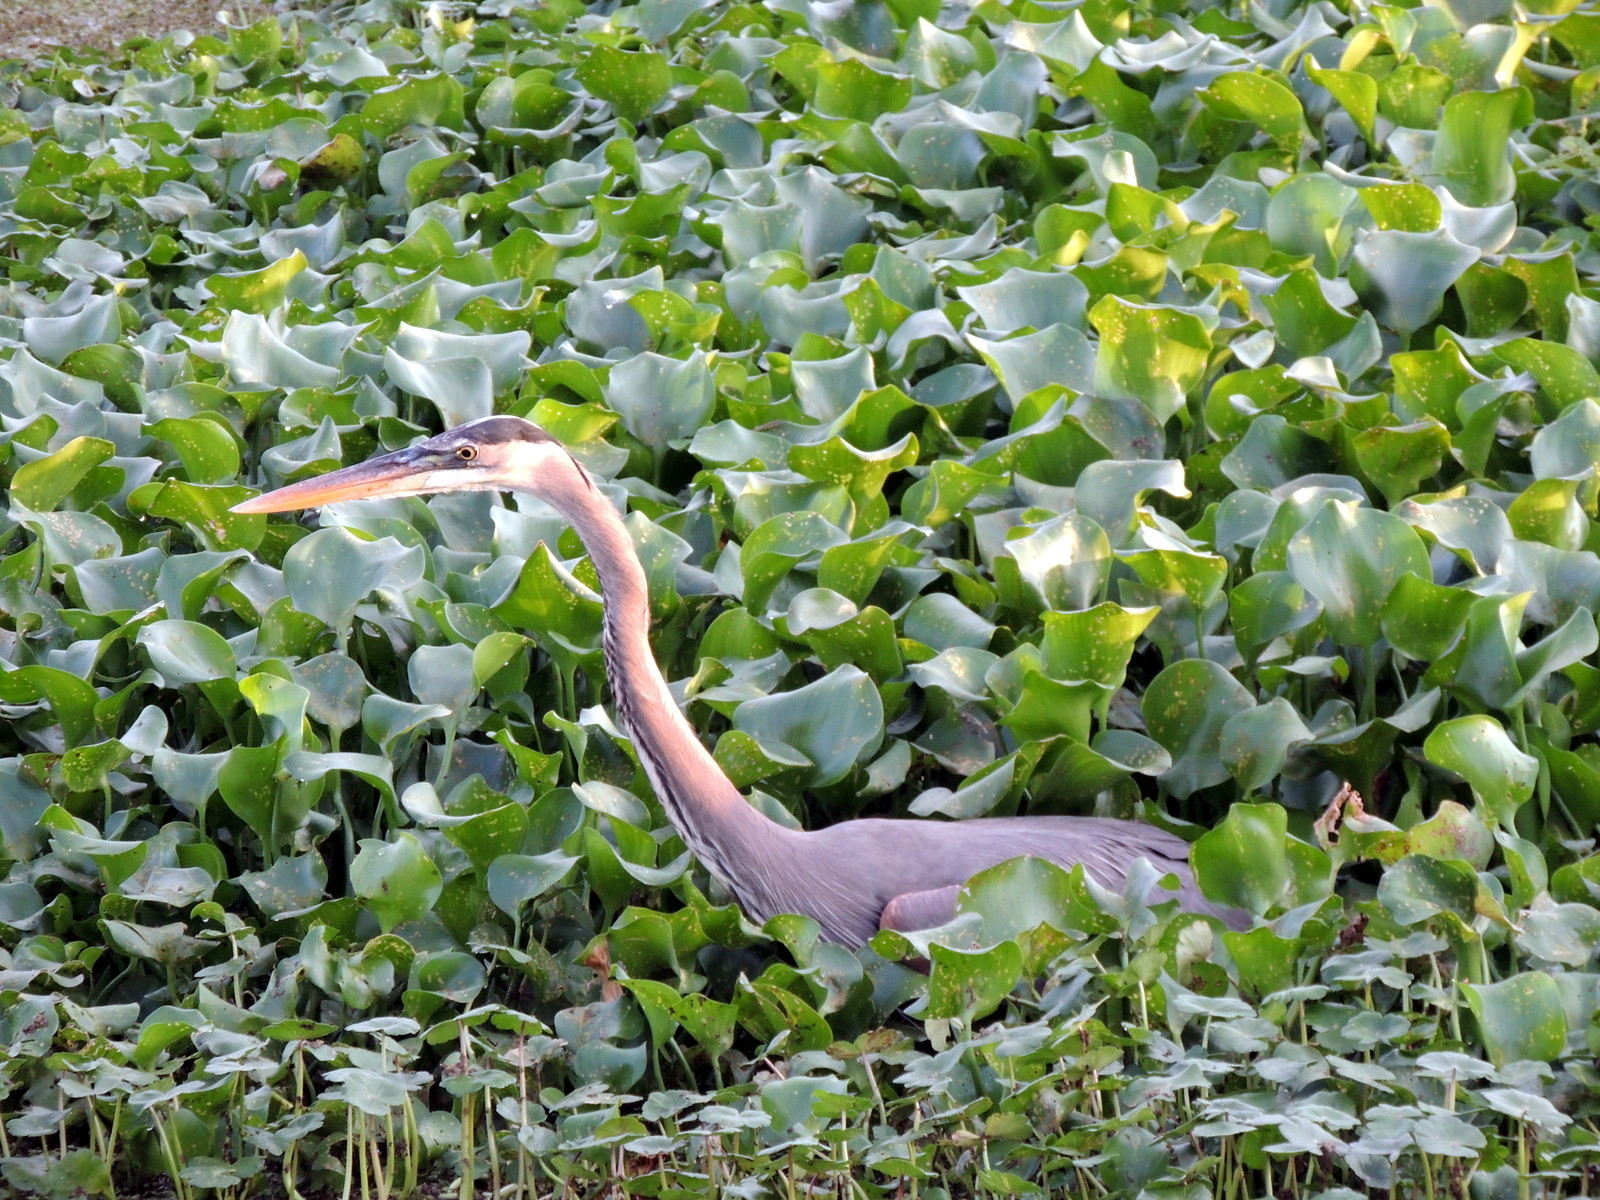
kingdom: Animalia
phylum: Chordata
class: Aves
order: Pelecaniformes
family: Ardeidae
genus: Ardea
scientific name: Ardea herodias
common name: Great blue heron
